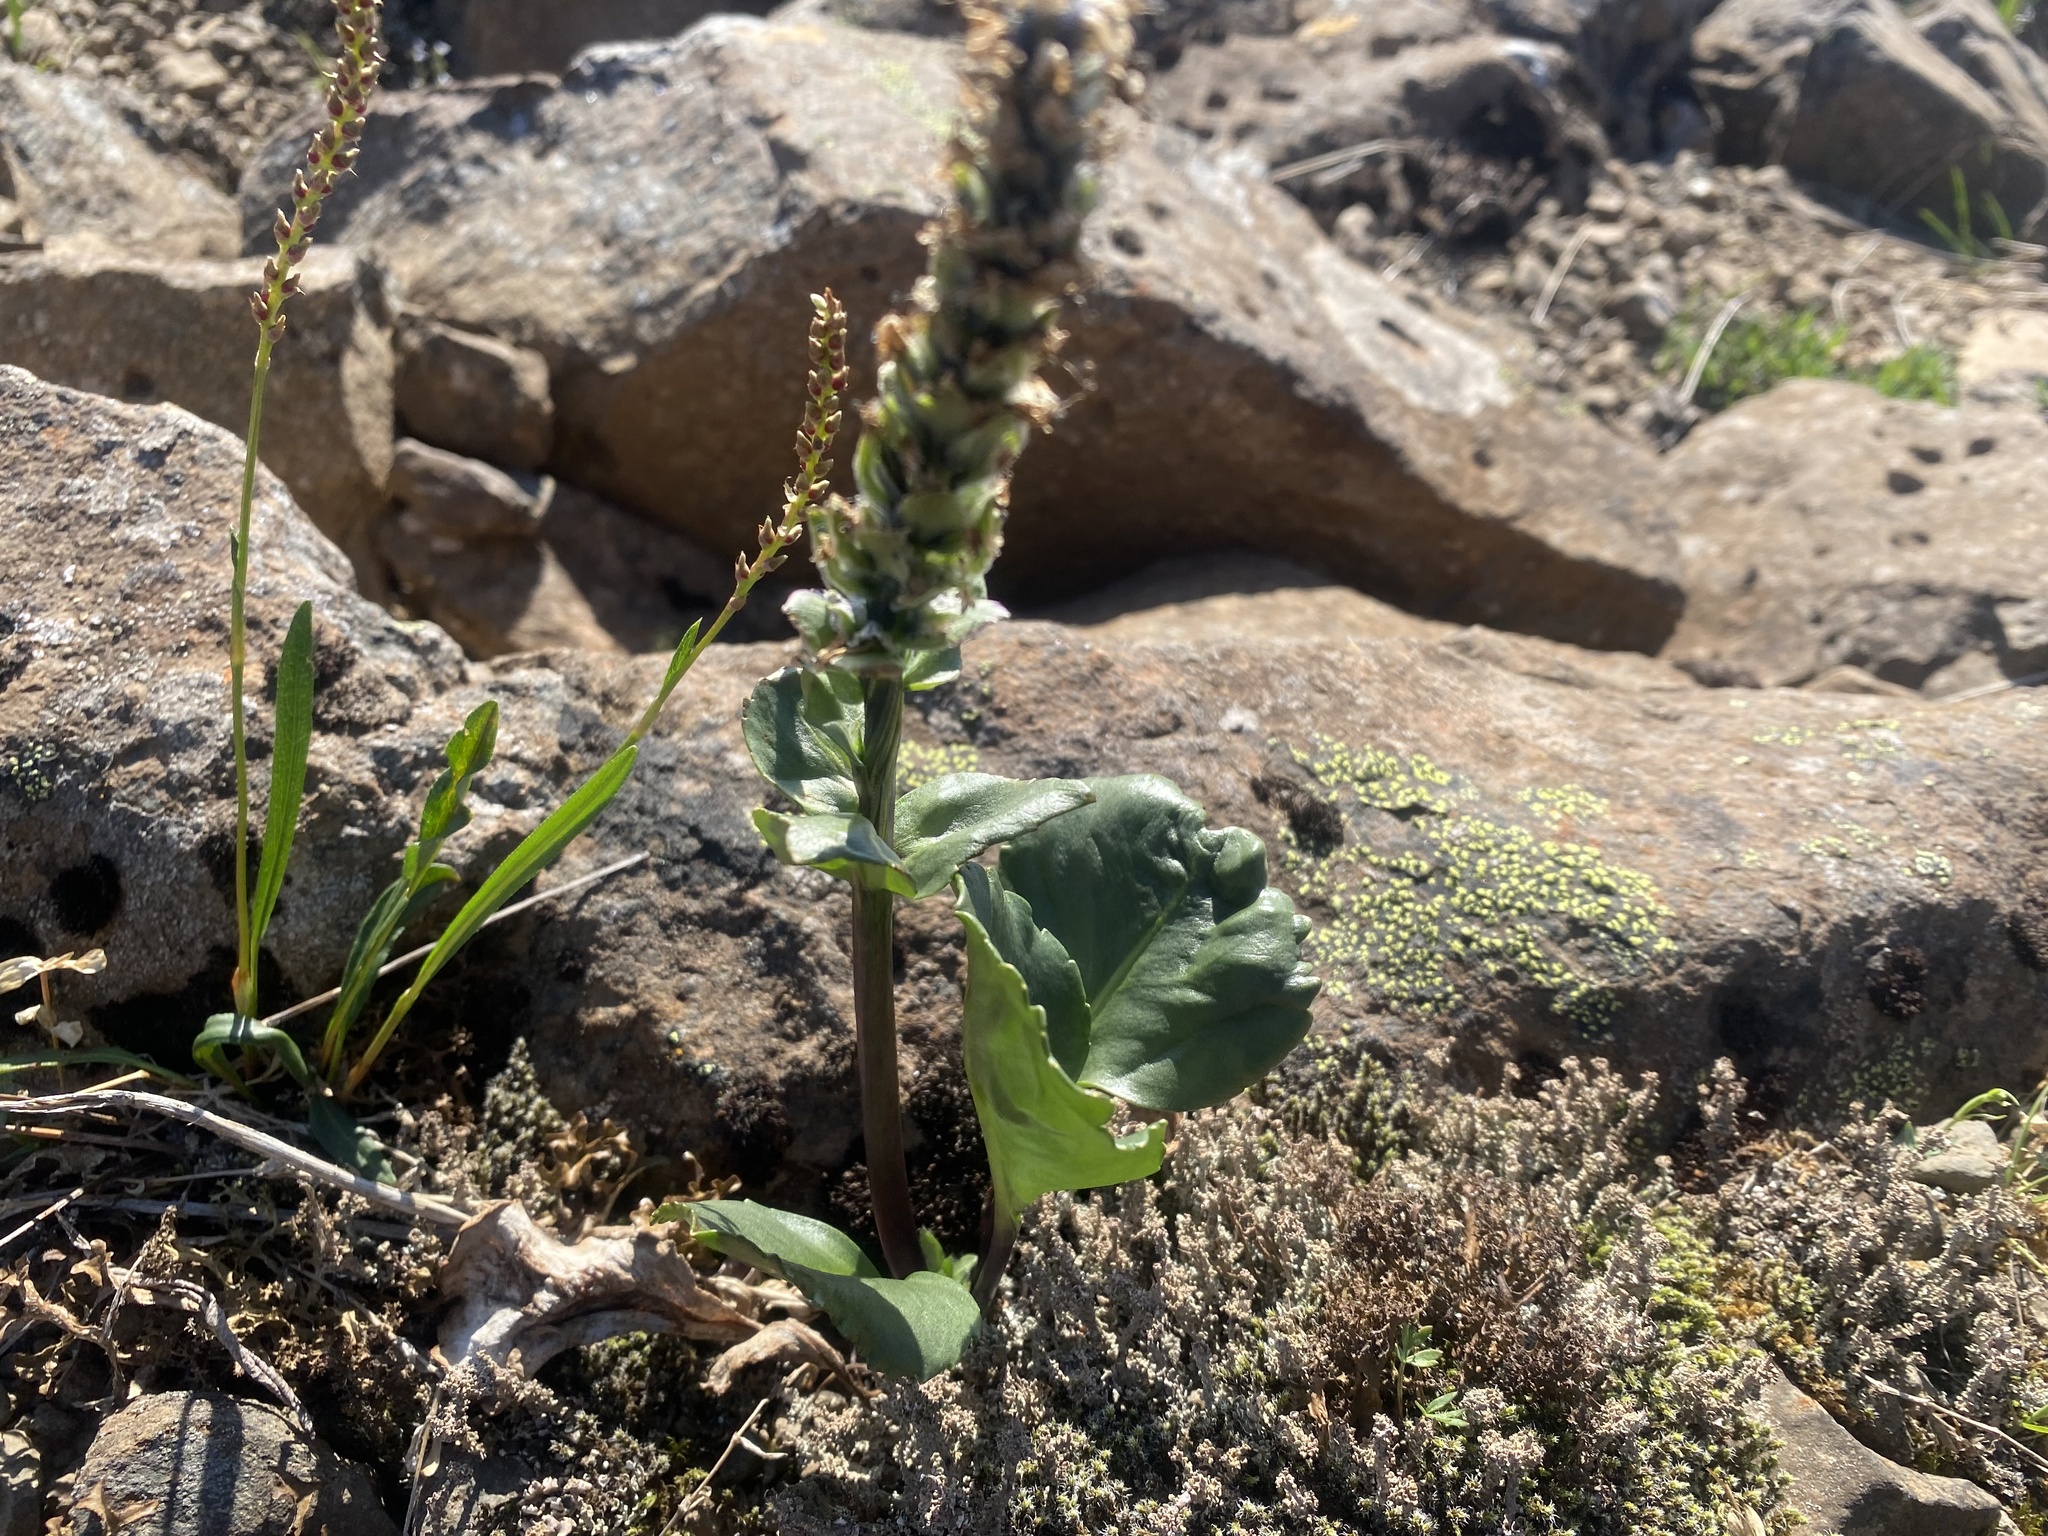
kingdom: Plantae
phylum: Tracheophyta
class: Magnoliopsida
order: Lamiales
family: Plantaginaceae
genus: Lagotis
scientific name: Lagotis glauca
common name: Glaucous weaselsnout
